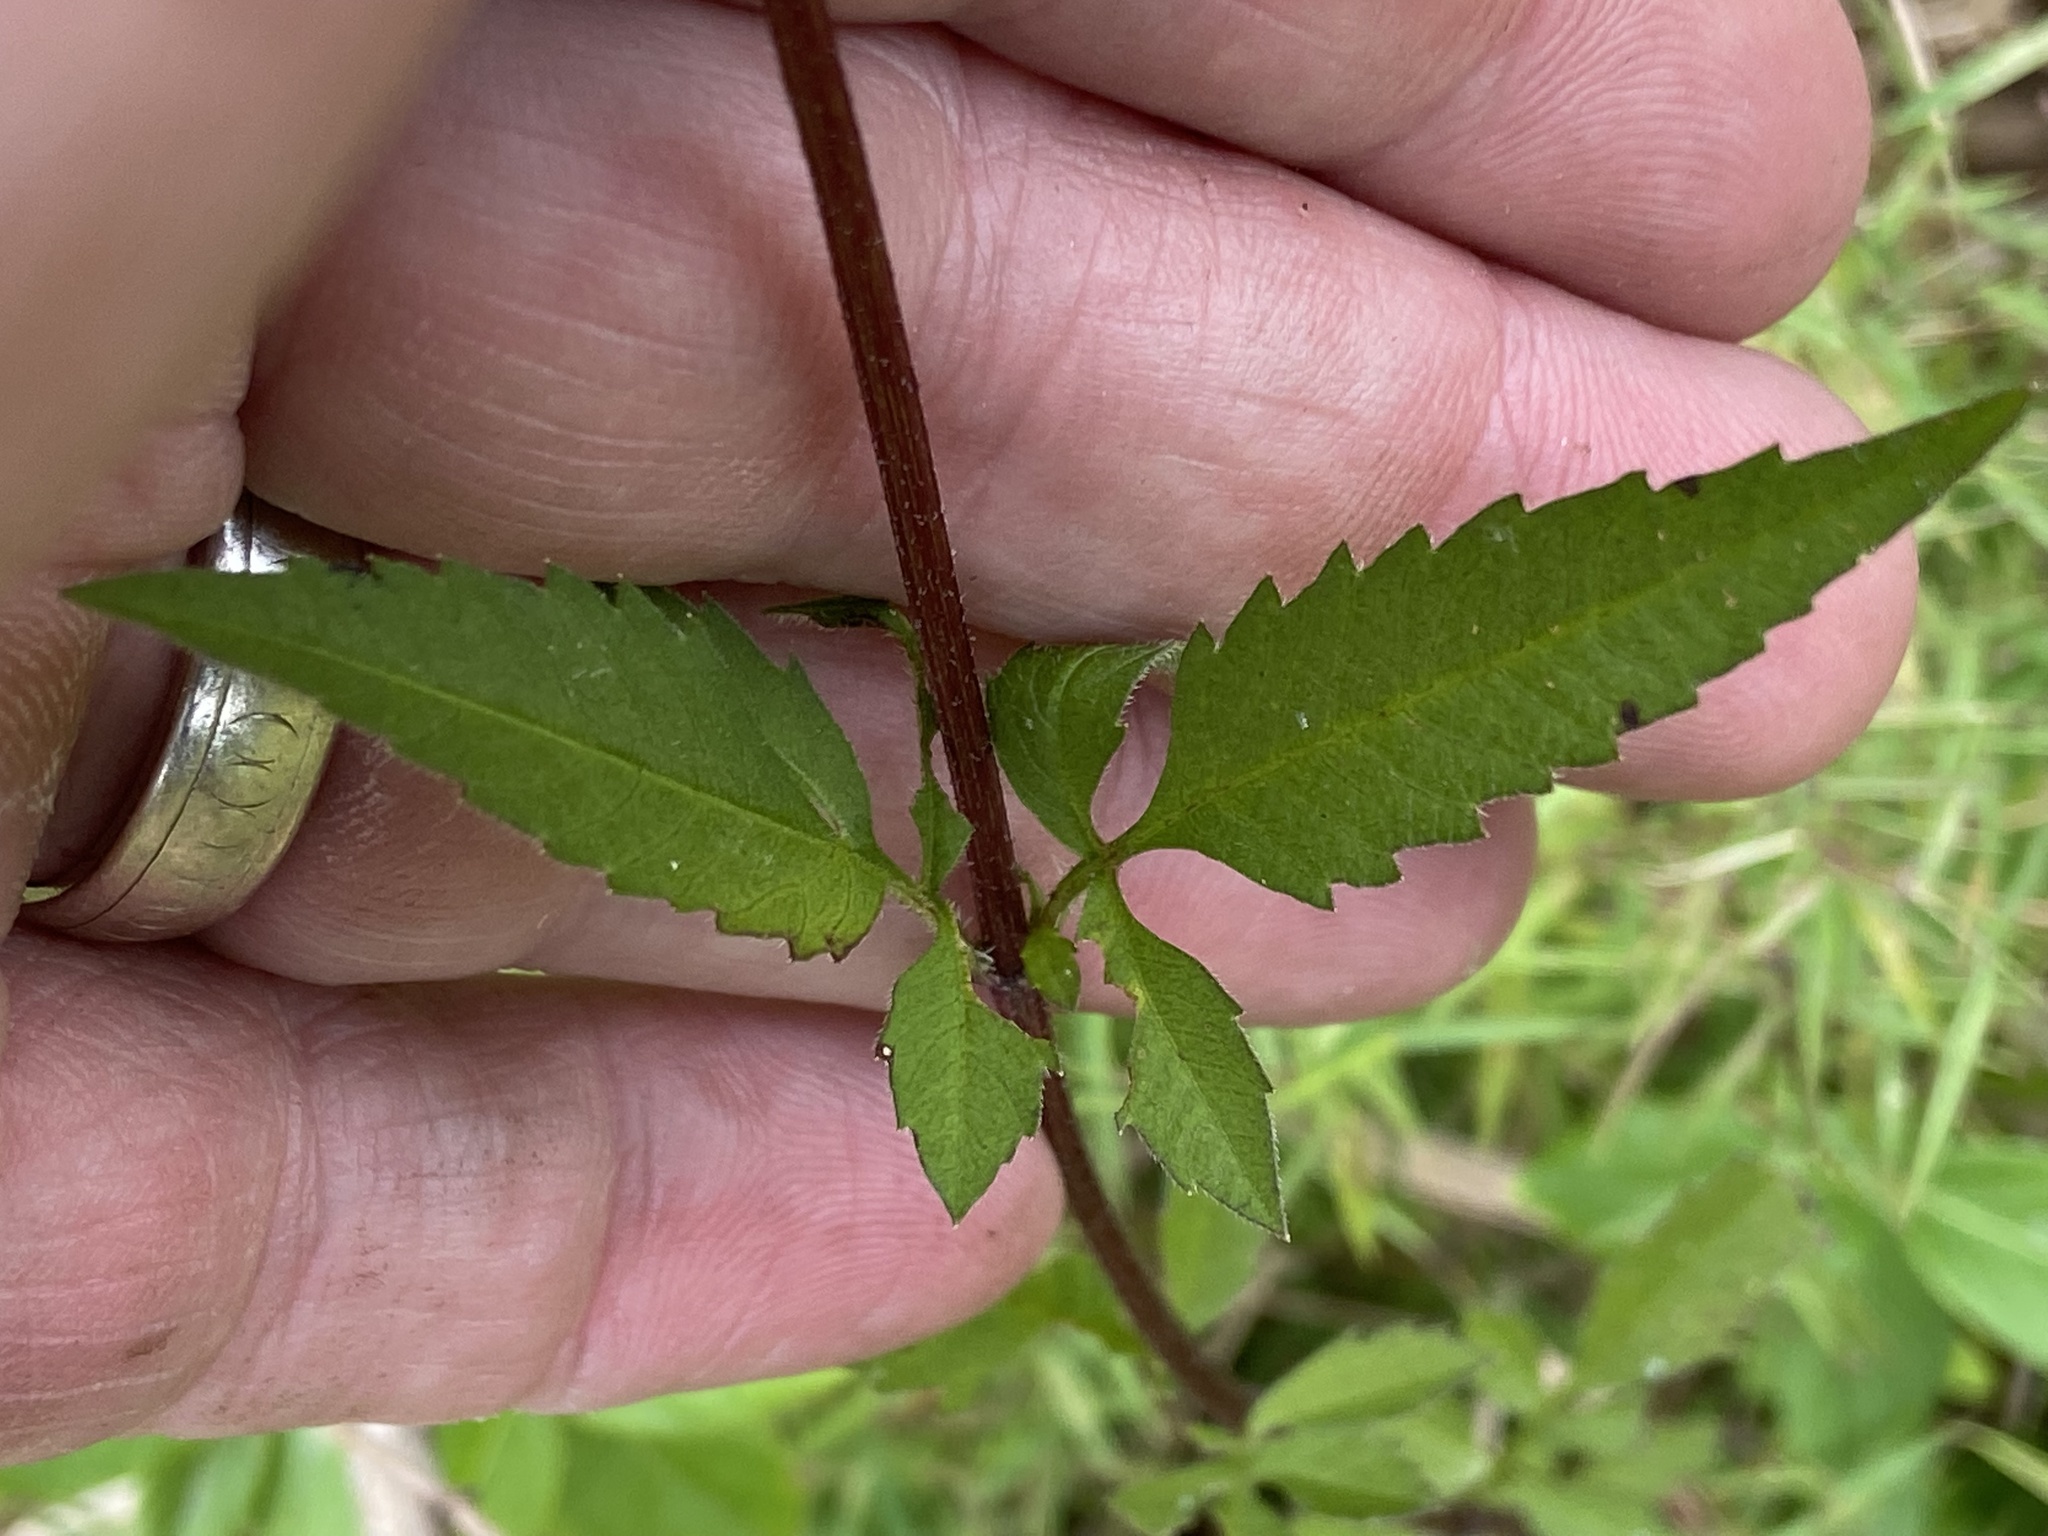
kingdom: Plantae
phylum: Tracheophyta
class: Magnoliopsida
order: Asterales
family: Asteraceae
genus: Bidens
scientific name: Bidens polylepis
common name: Awnless beggarticks
